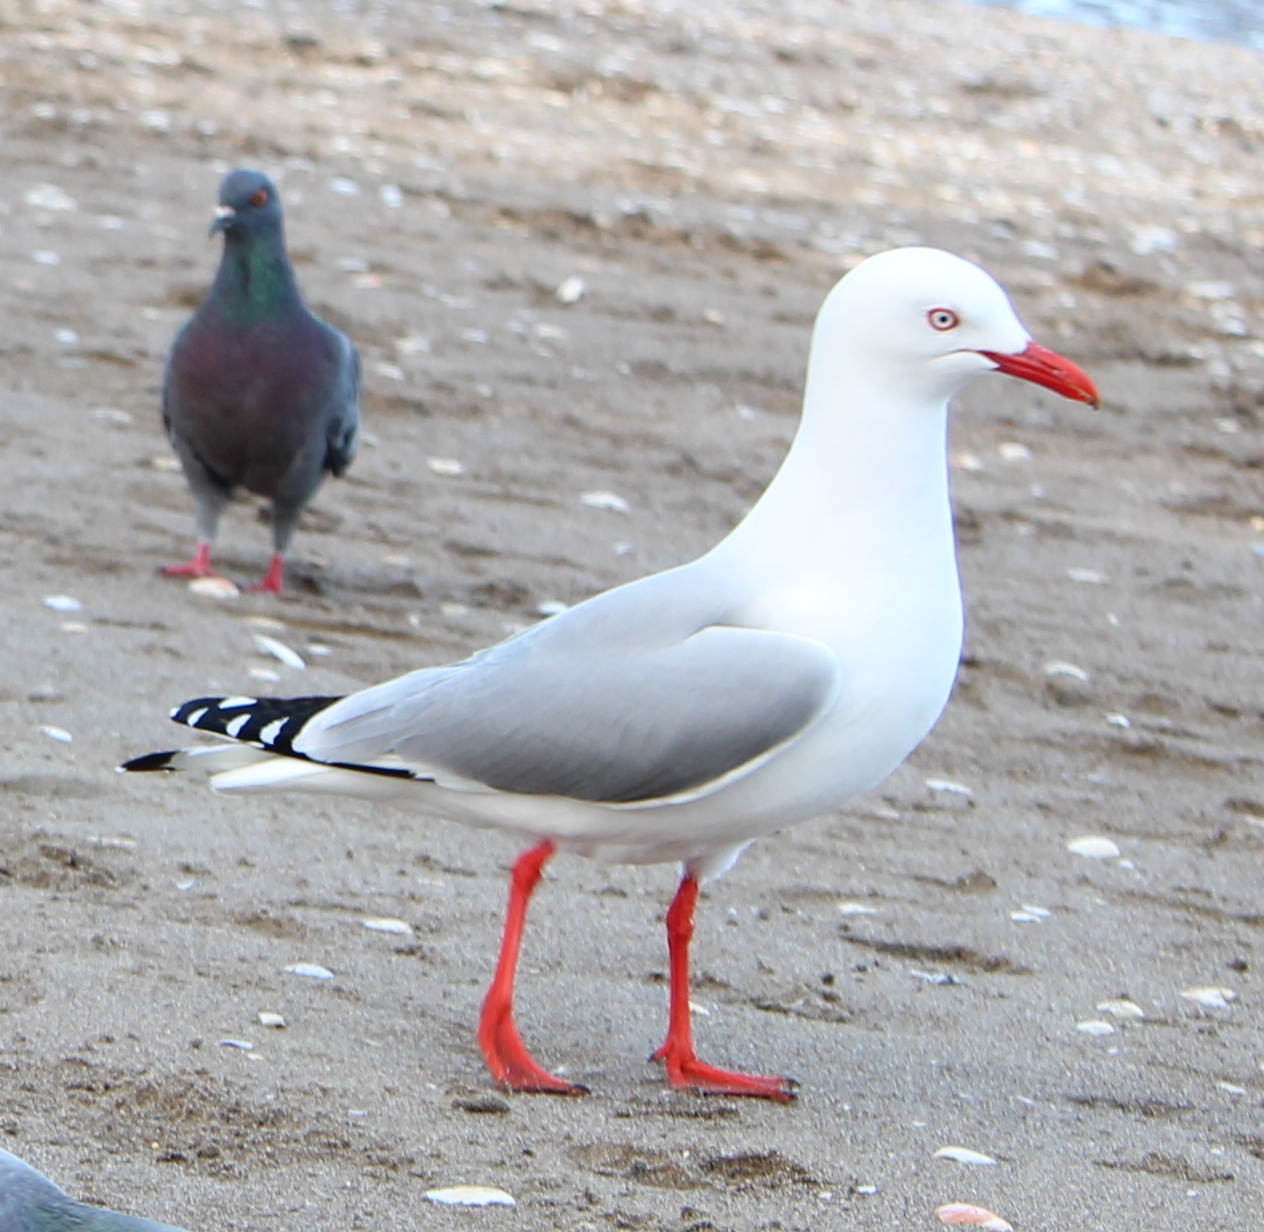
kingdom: Animalia
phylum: Chordata
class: Aves
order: Charadriiformes
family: Laridae
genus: Chroicocephalus
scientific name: Chroicocephalus novaehollandiae
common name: Silver gull
